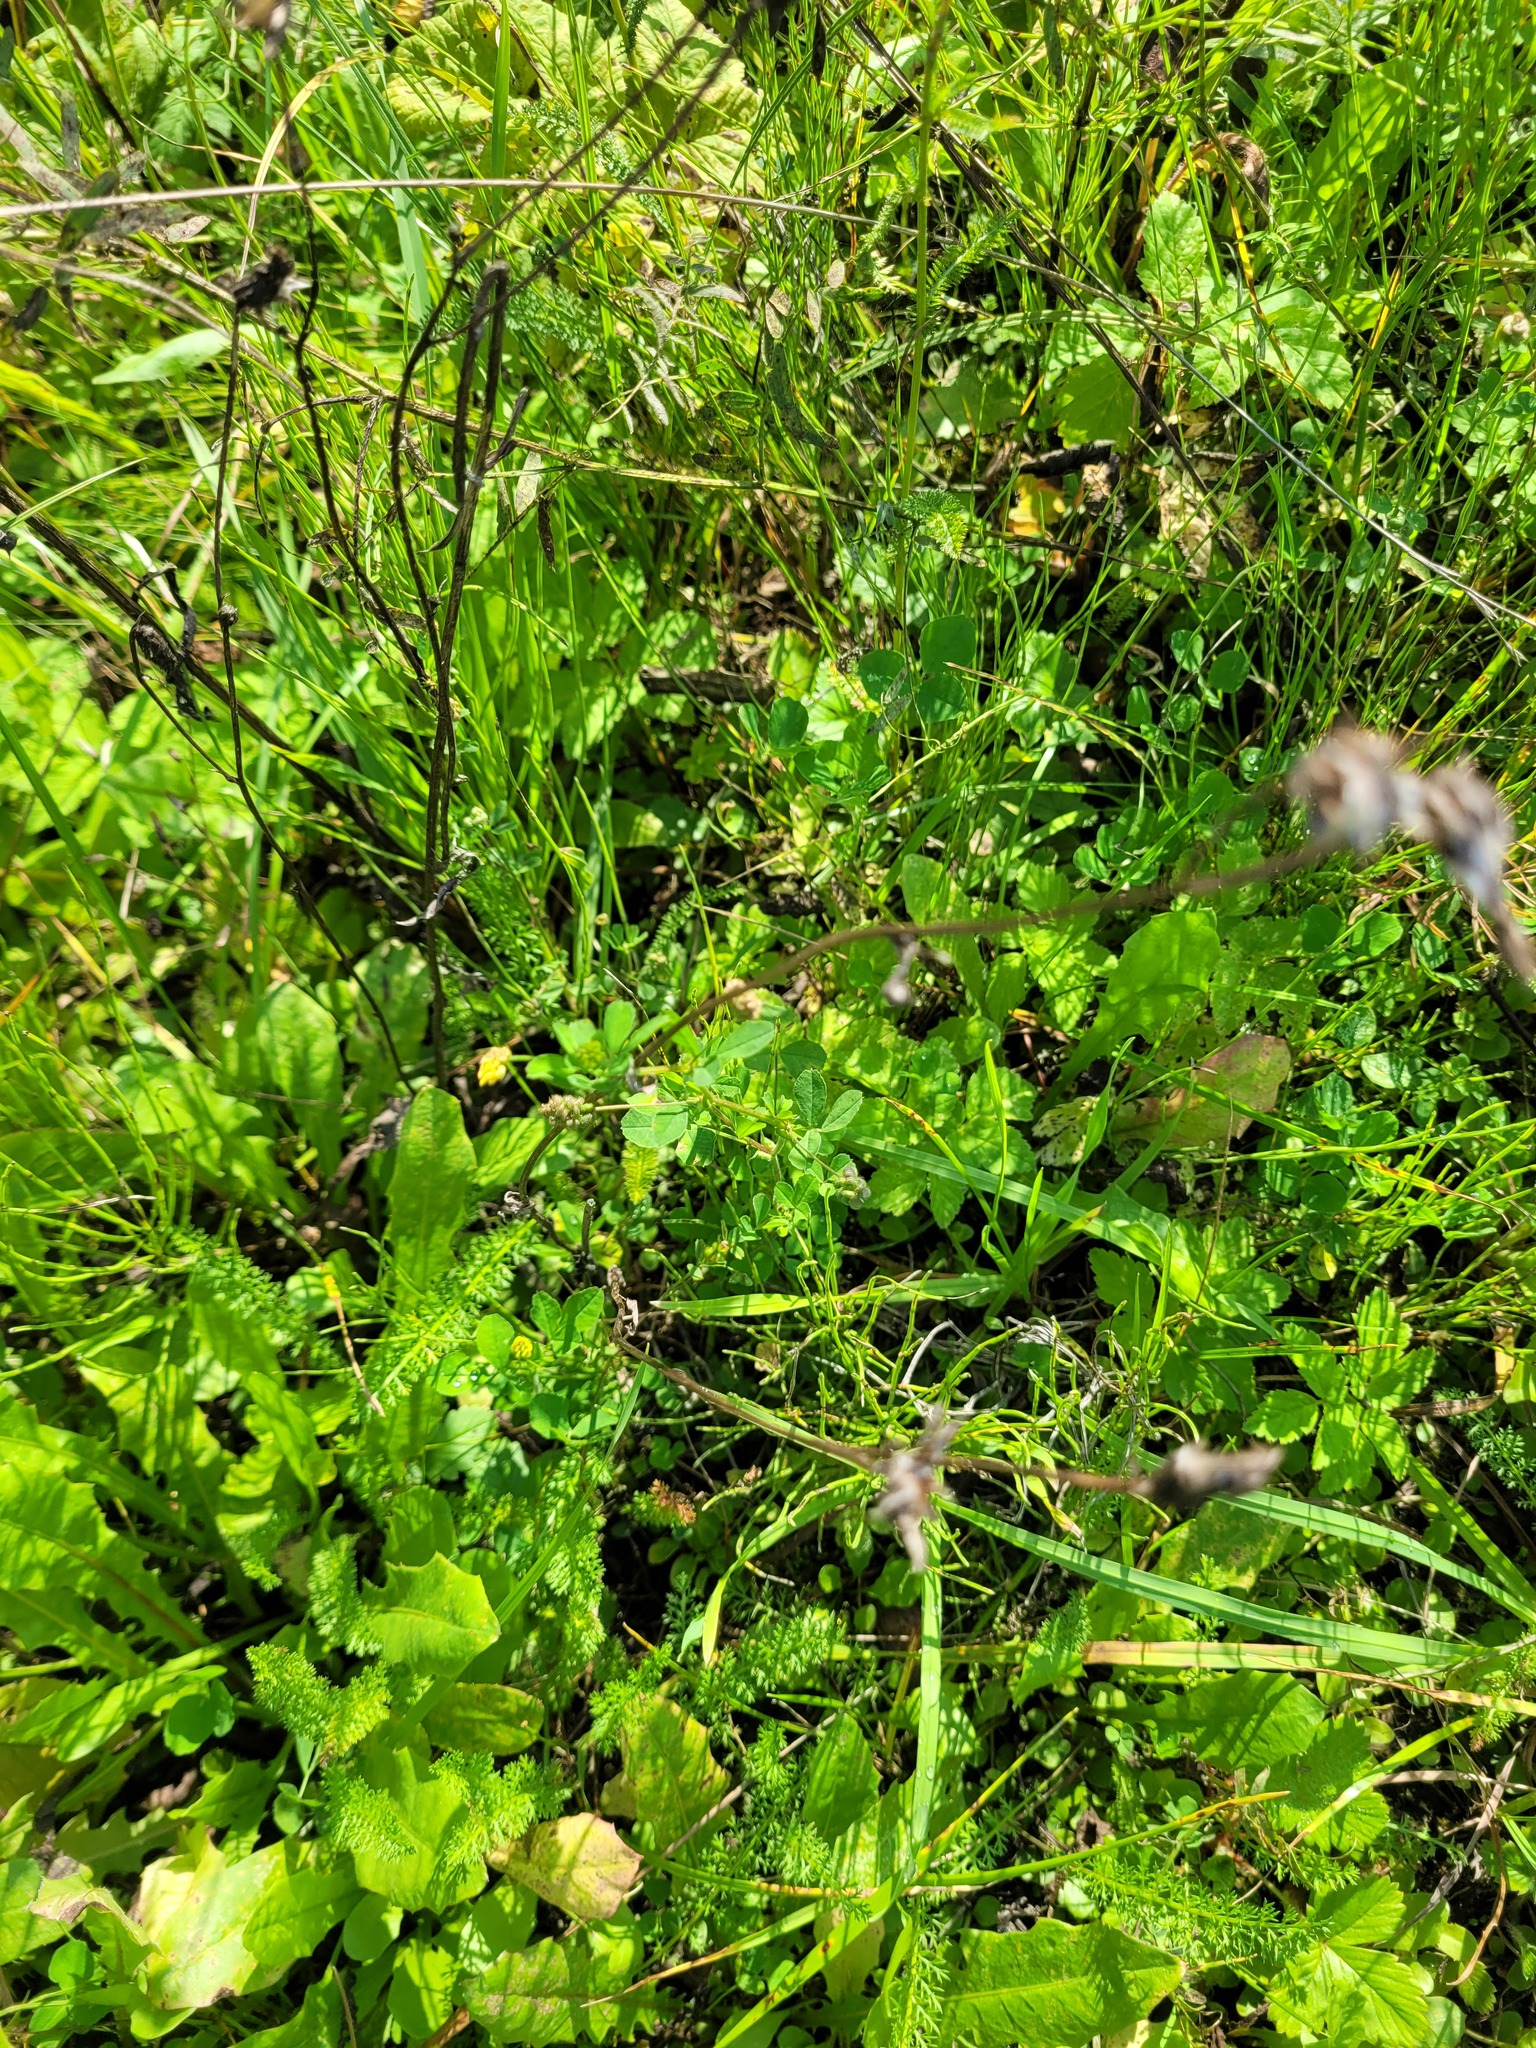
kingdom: Plantae
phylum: Tracheophyta
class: Magnoliopsida
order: Fabales
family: Fabaceae
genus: Medicago
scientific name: Medicago lupulina
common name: Black medick
